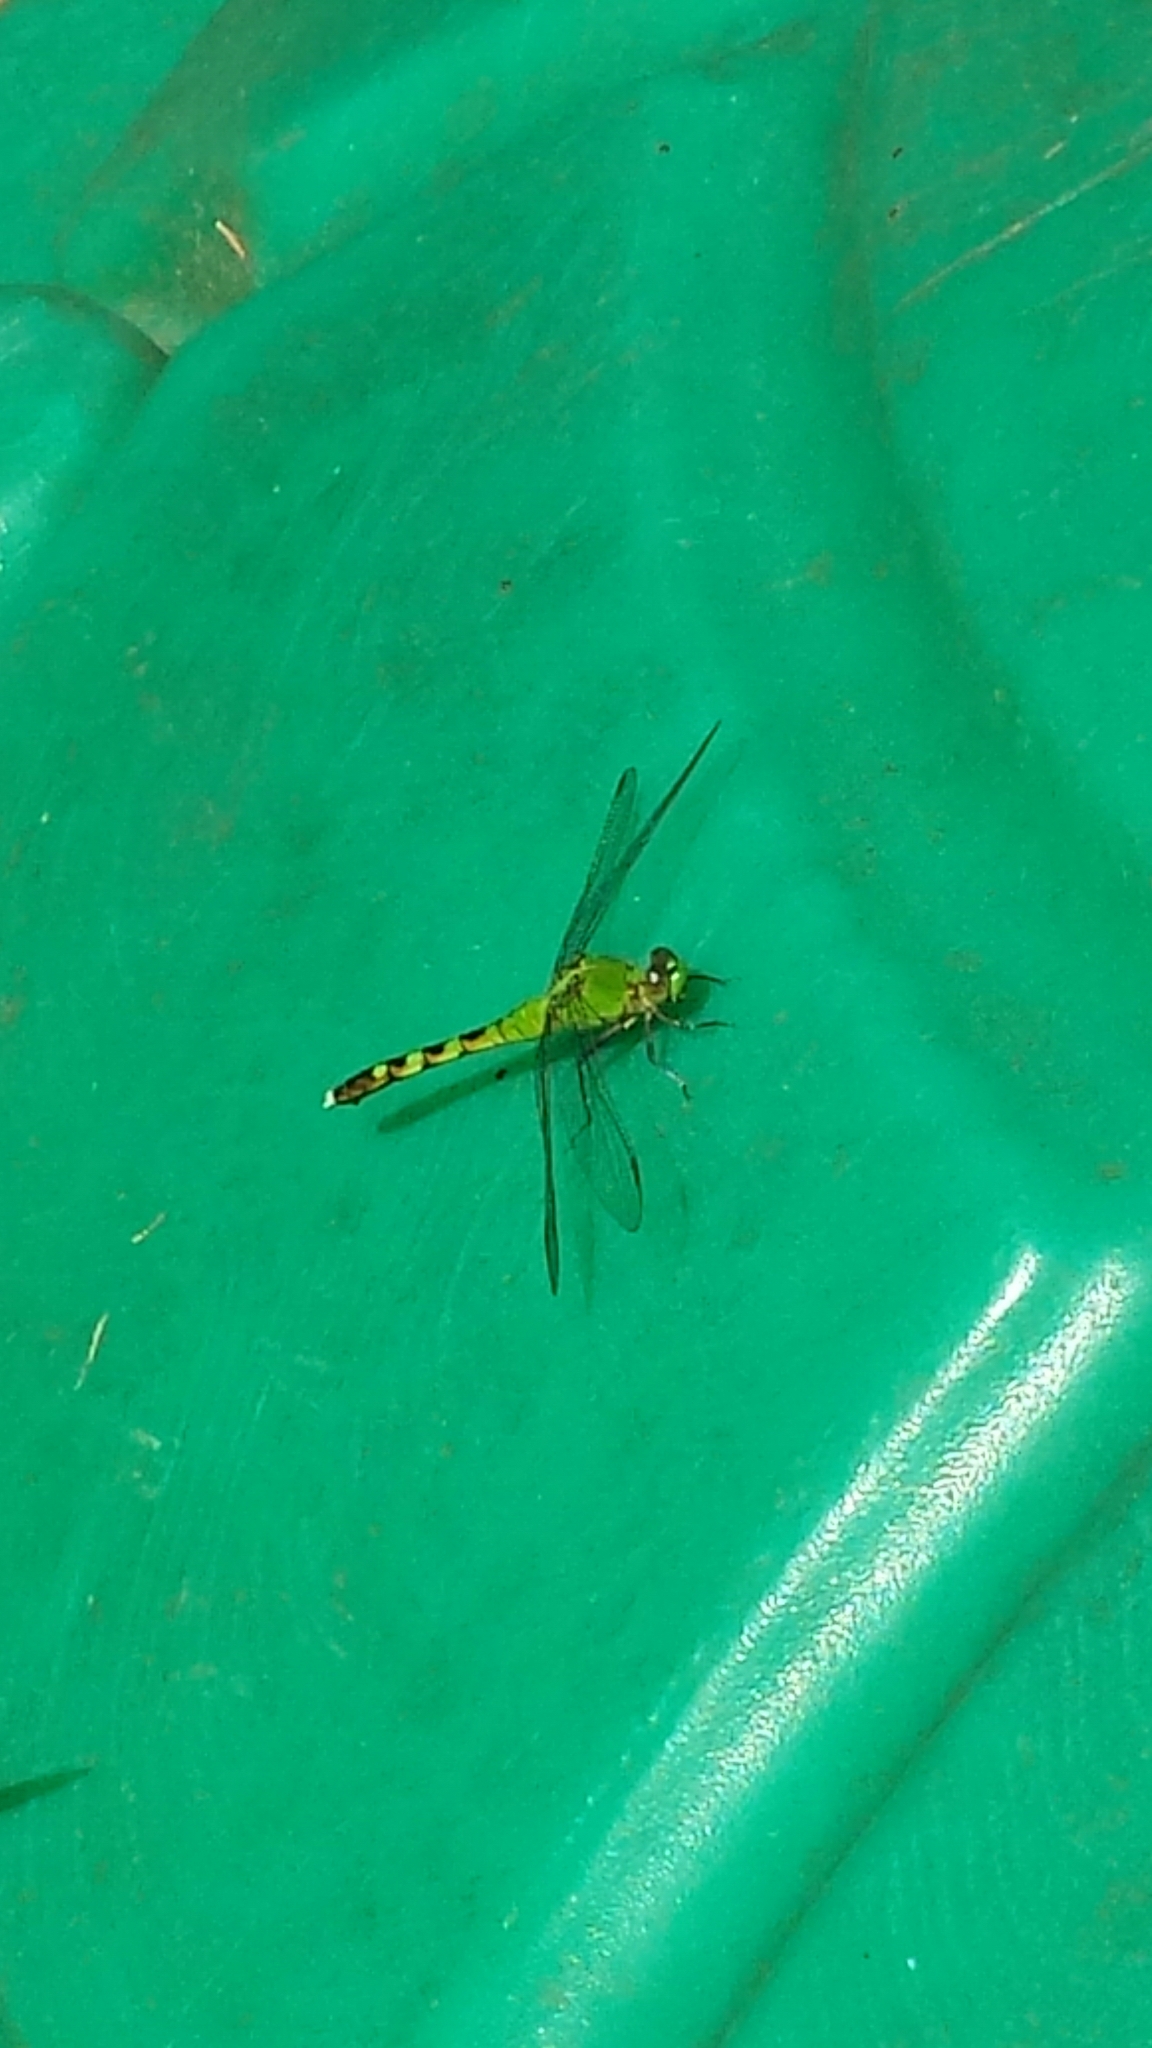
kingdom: Animalia
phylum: Arthropoda
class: Insecta
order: Odonata
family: Libellulidae
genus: Erythemis
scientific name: Erythemis simplicicollis
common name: Eastern pondhawk
